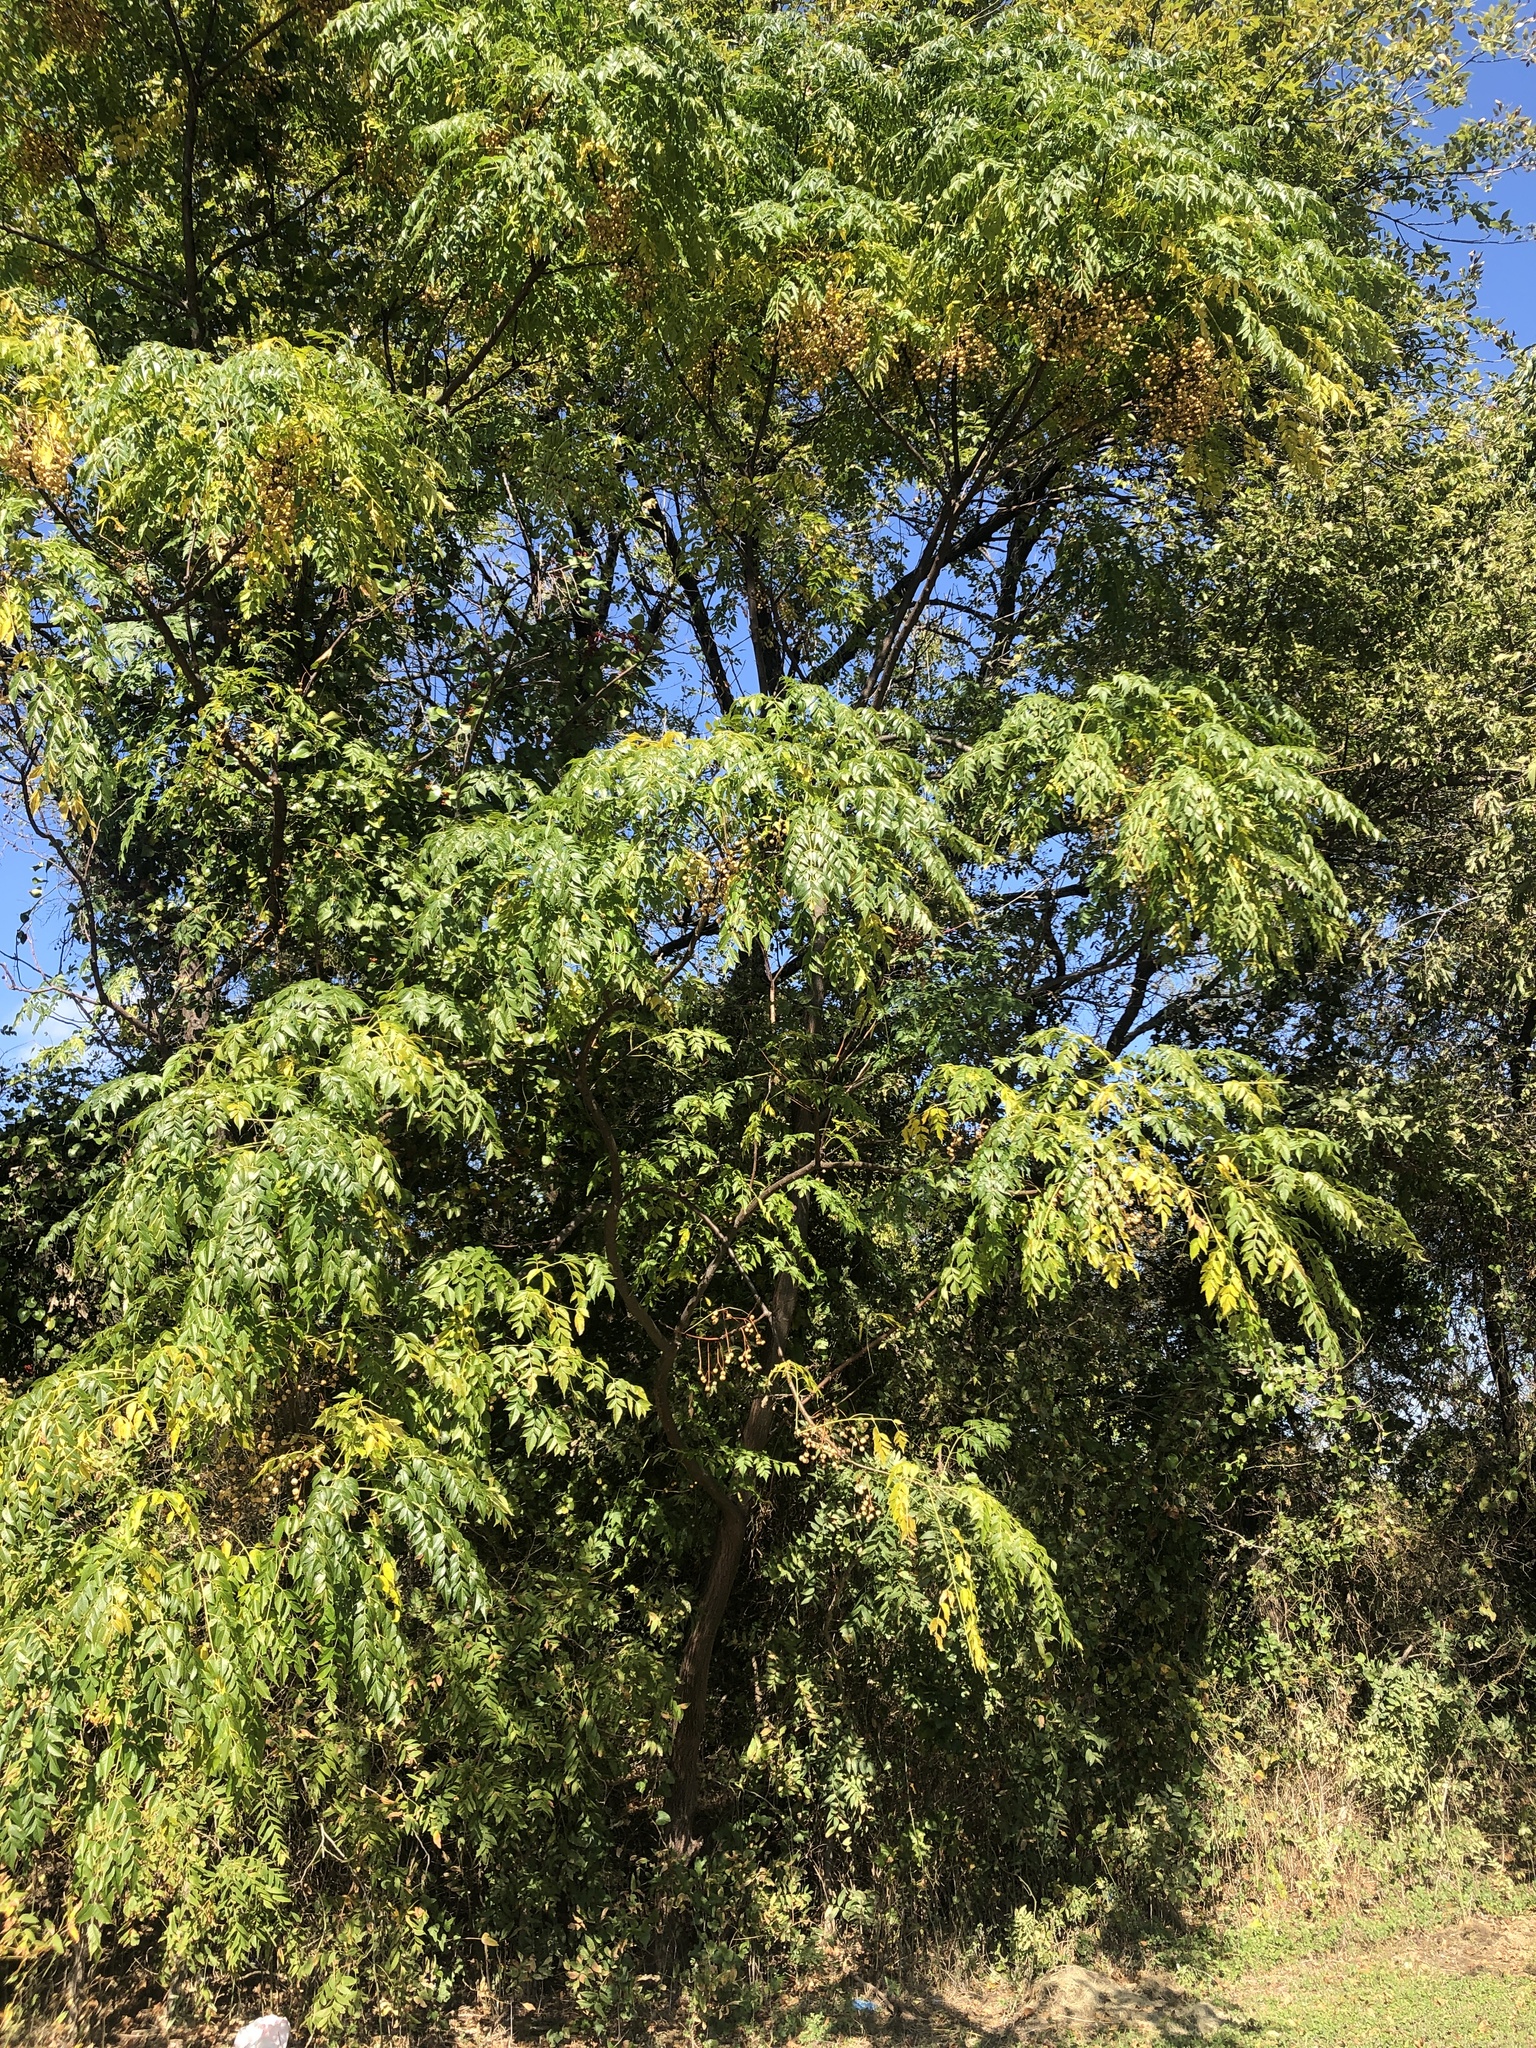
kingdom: Plantae
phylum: Tracheophyta
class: Magnoliopsida
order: Sapindales
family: Meliaceae
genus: Melia
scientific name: Melia azedarach
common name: Chinaberrytree
